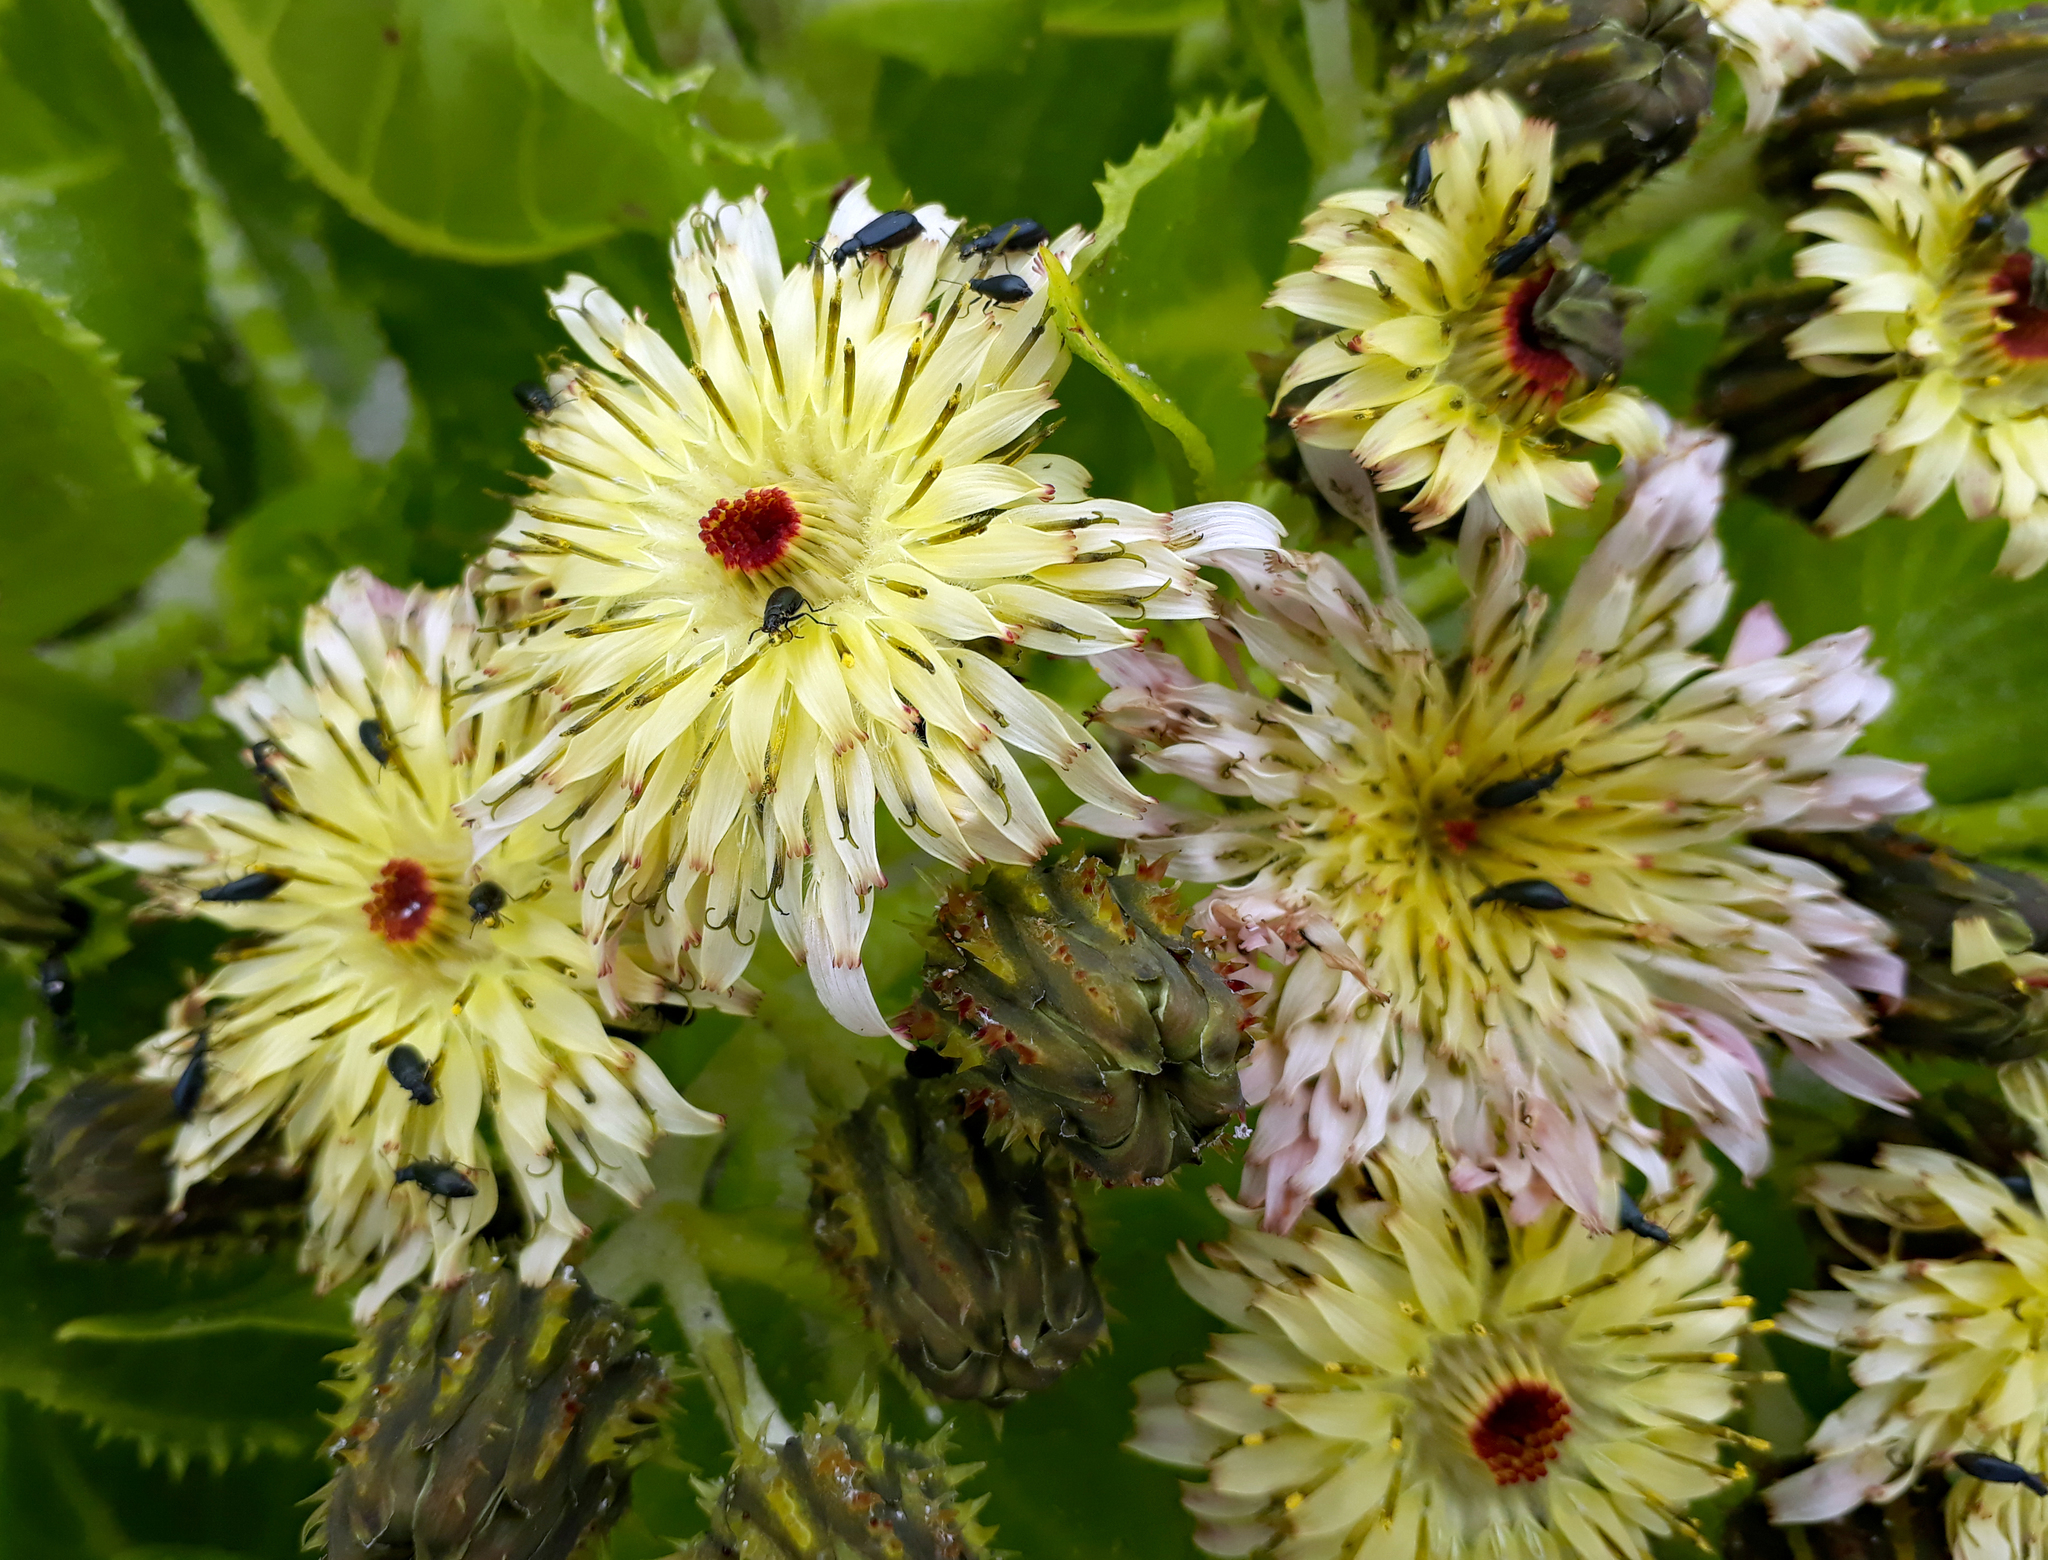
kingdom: Plantae
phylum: Tracheophyta
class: Magnoliopsida
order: Asterales
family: Asteraceae
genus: Sonchus
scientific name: Sonchus grandifolius
